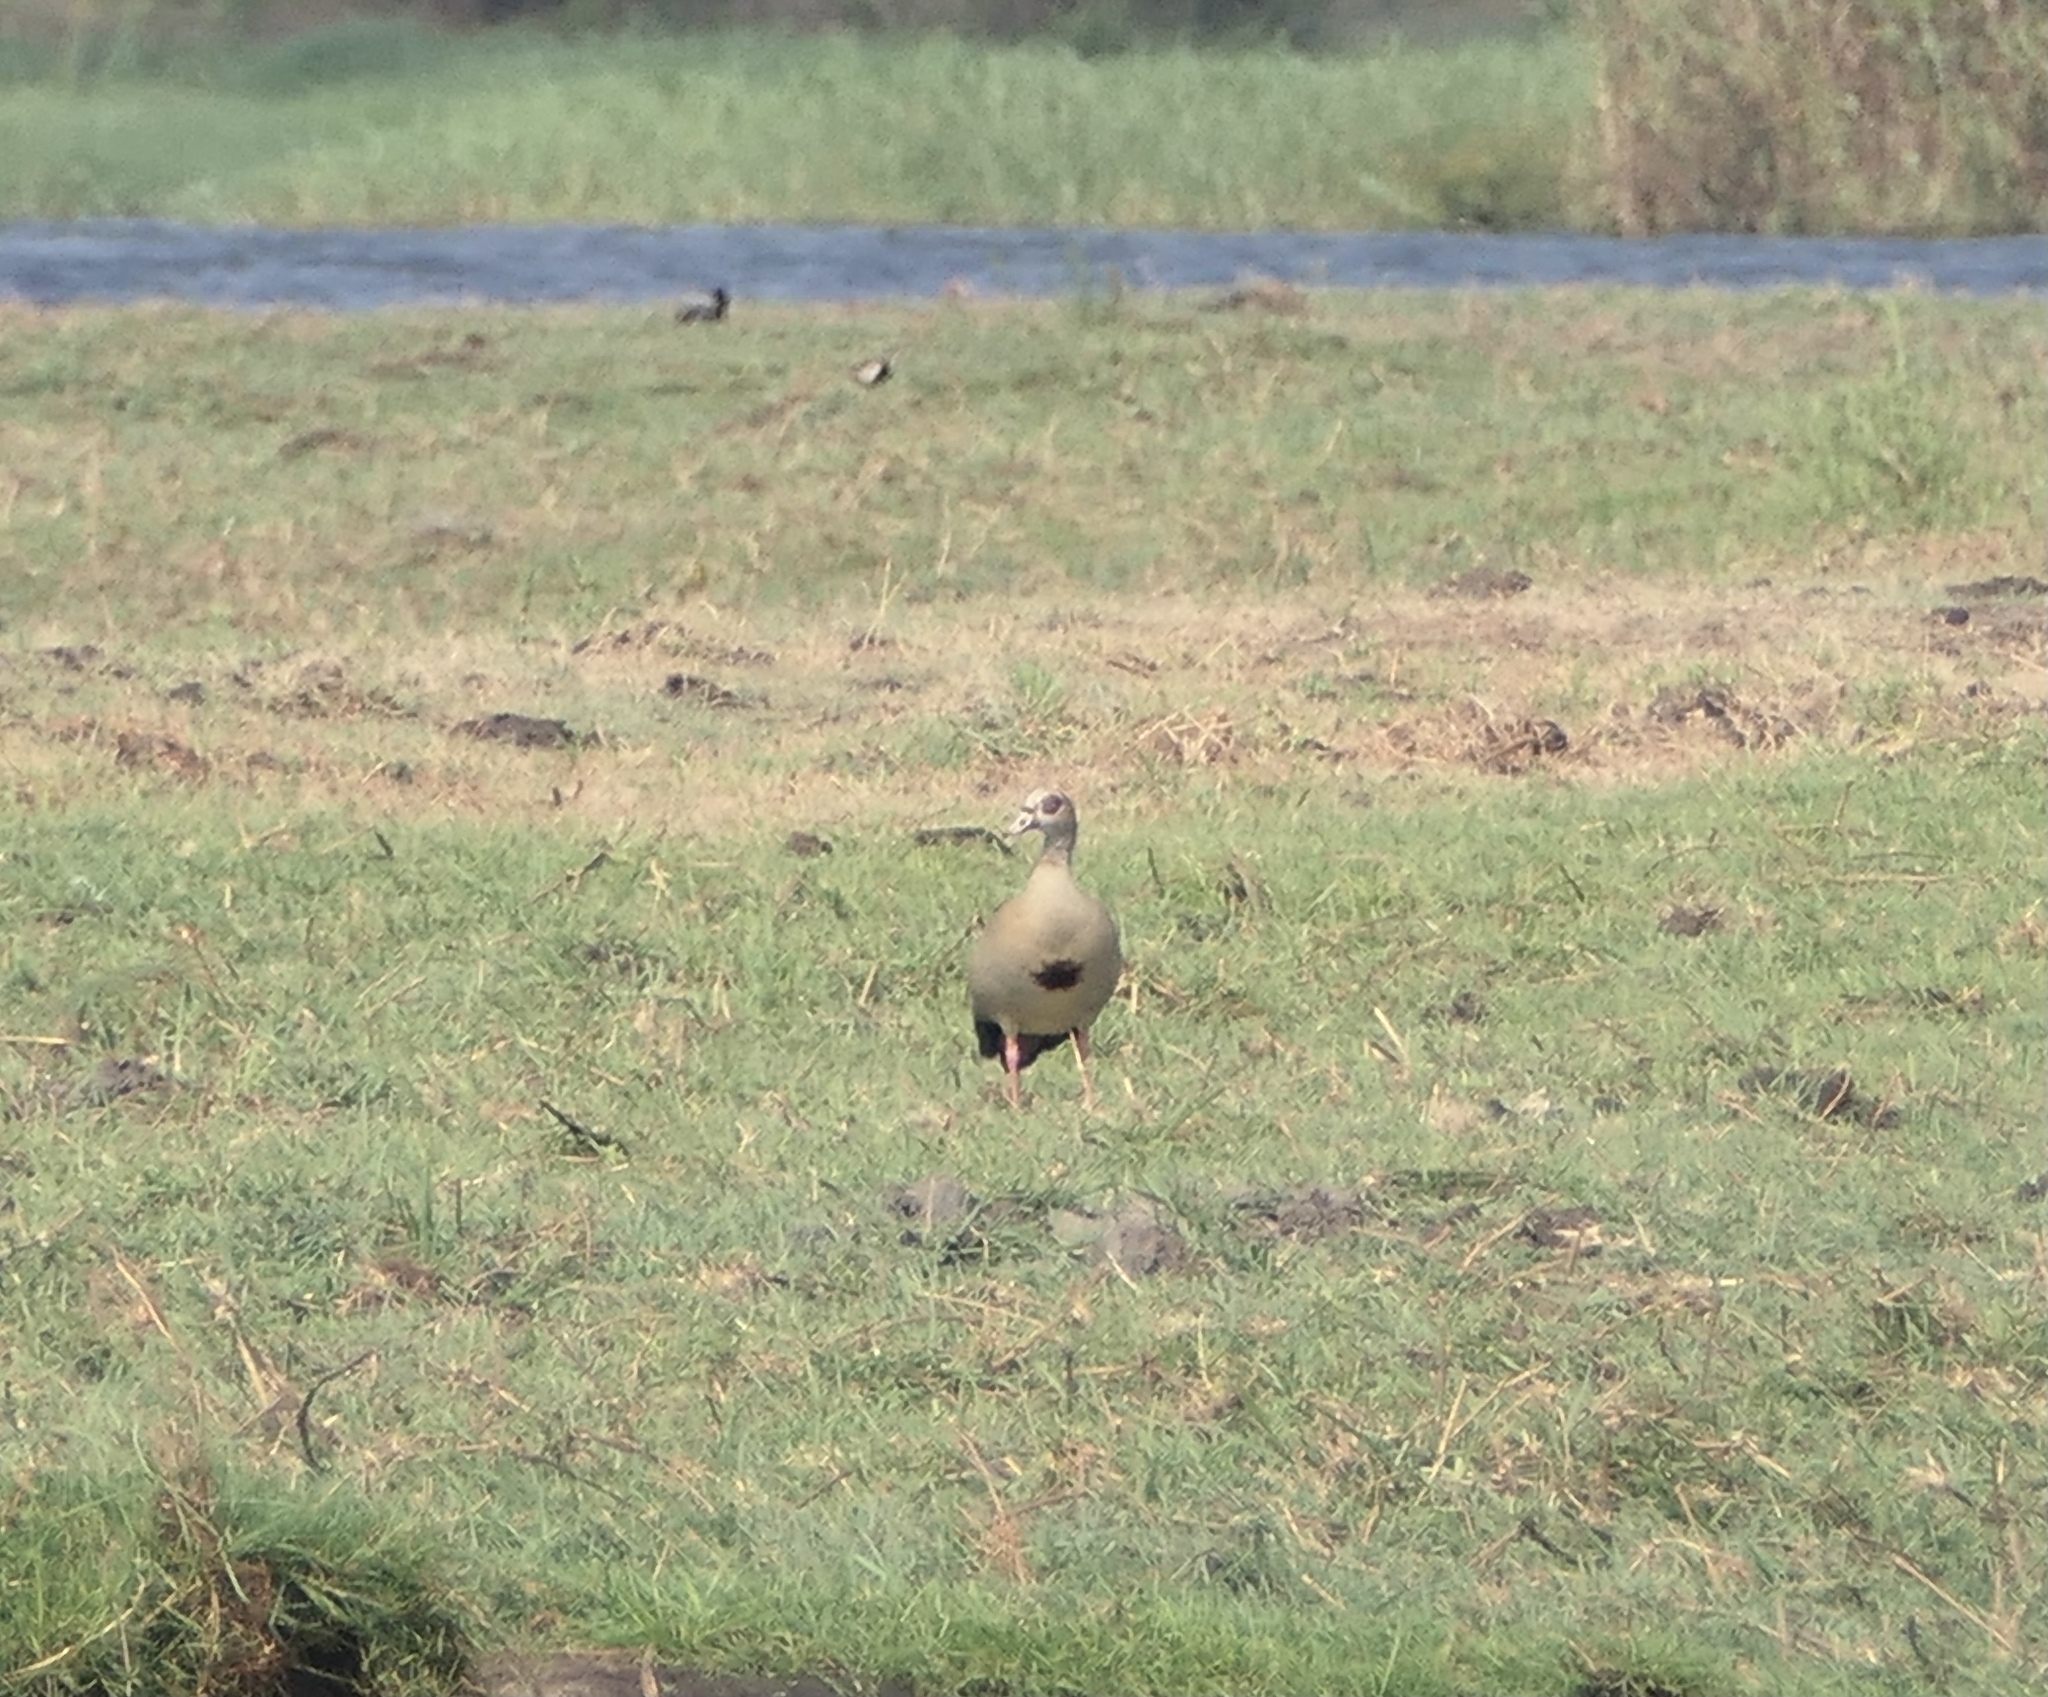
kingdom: Animalia
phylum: Chordata
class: Aves
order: Anseriformes
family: Anatidae
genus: Alopochen
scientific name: Alopochen aegyptiaca
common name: Egyptian goose
